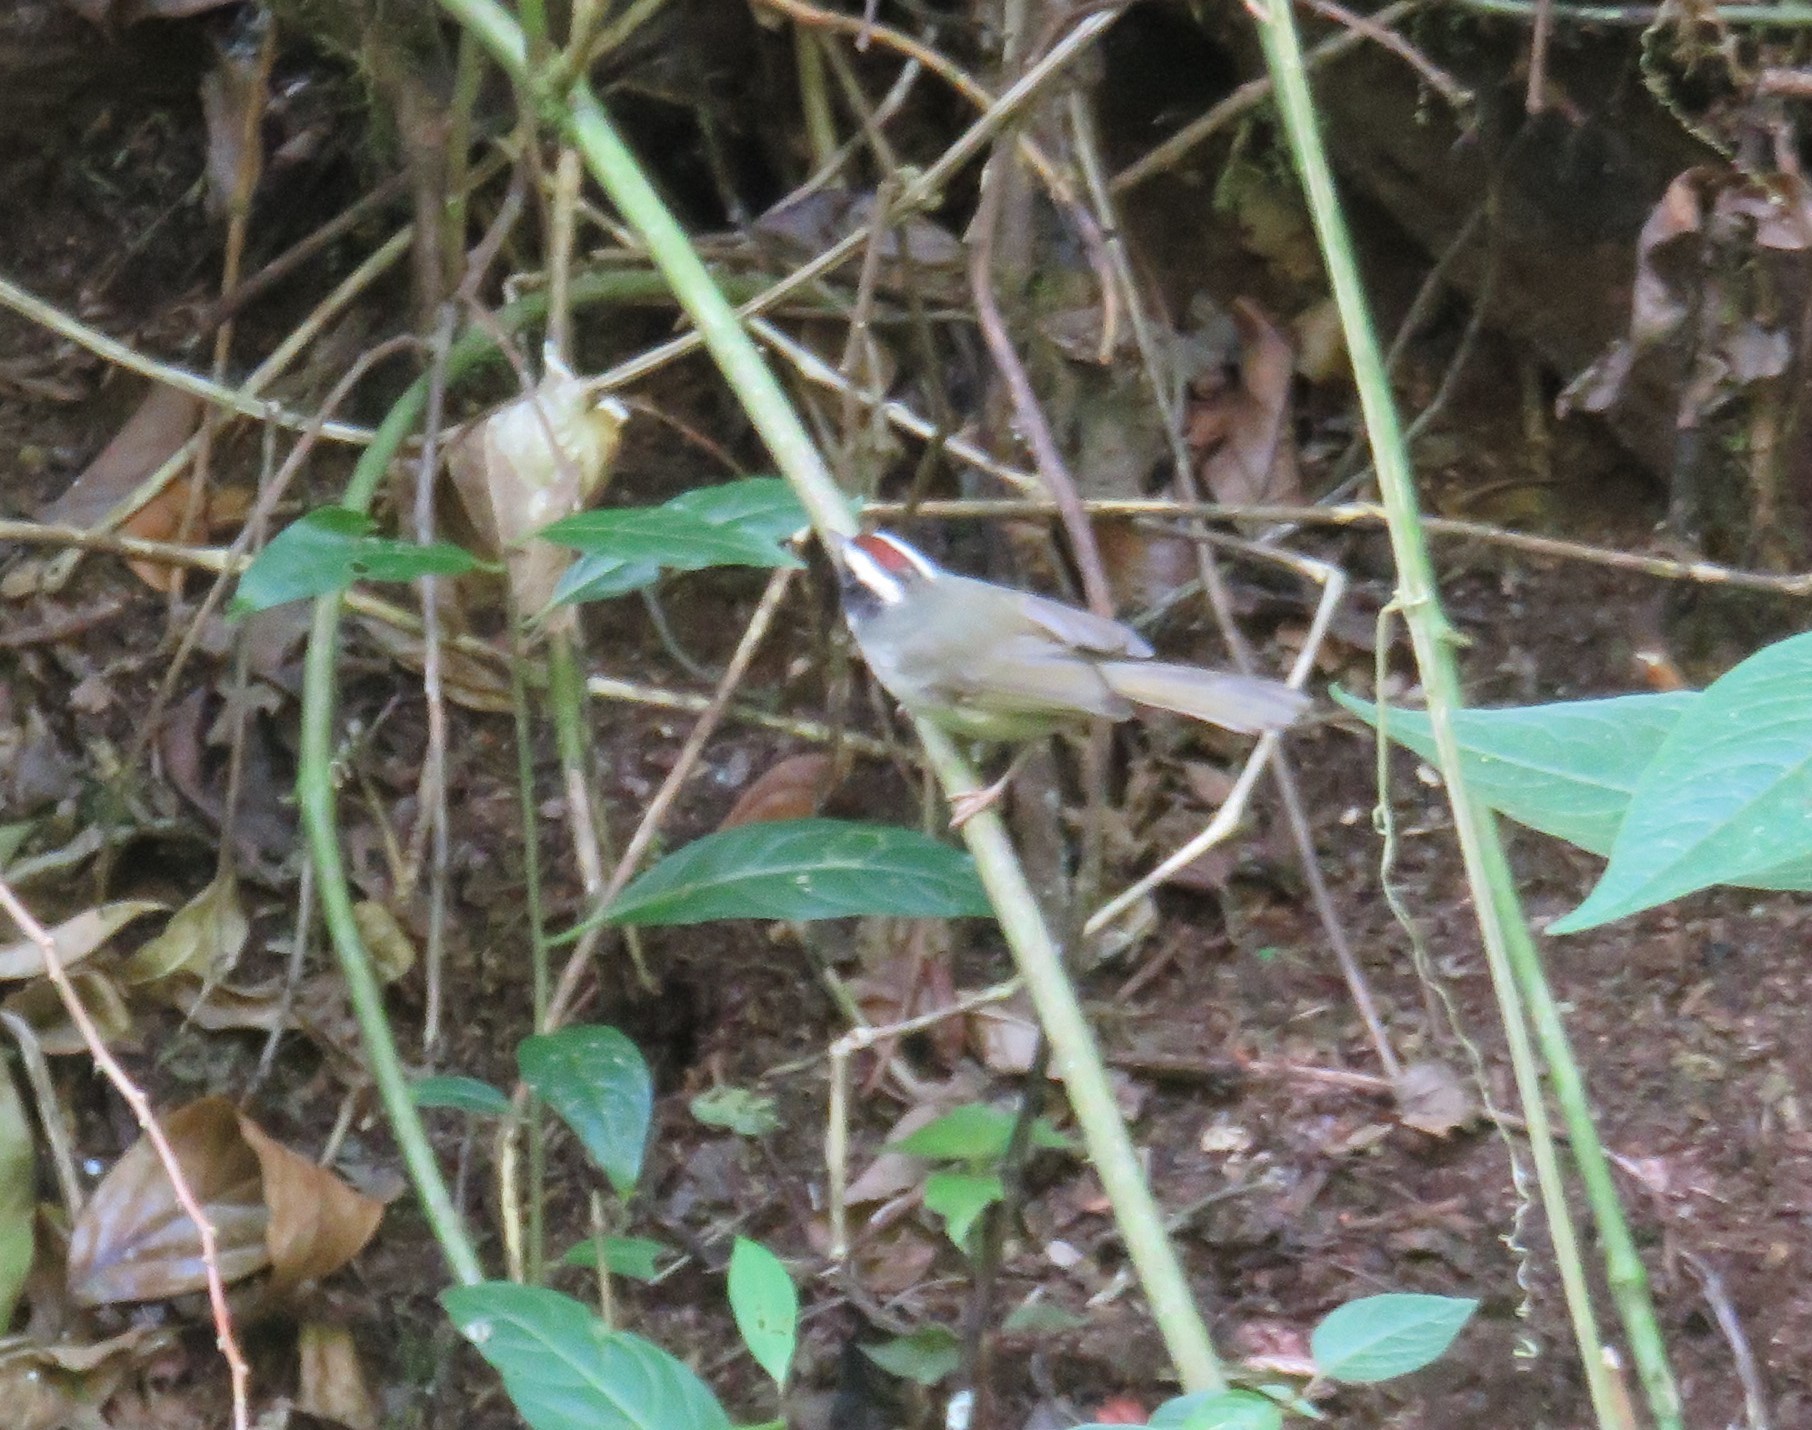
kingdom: Animalia
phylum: Chordata
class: Aves
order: Passeriformes
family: Parulidae
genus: Basileuterus
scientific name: Basileuterus melanogenys
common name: Black-cheeked warbler
